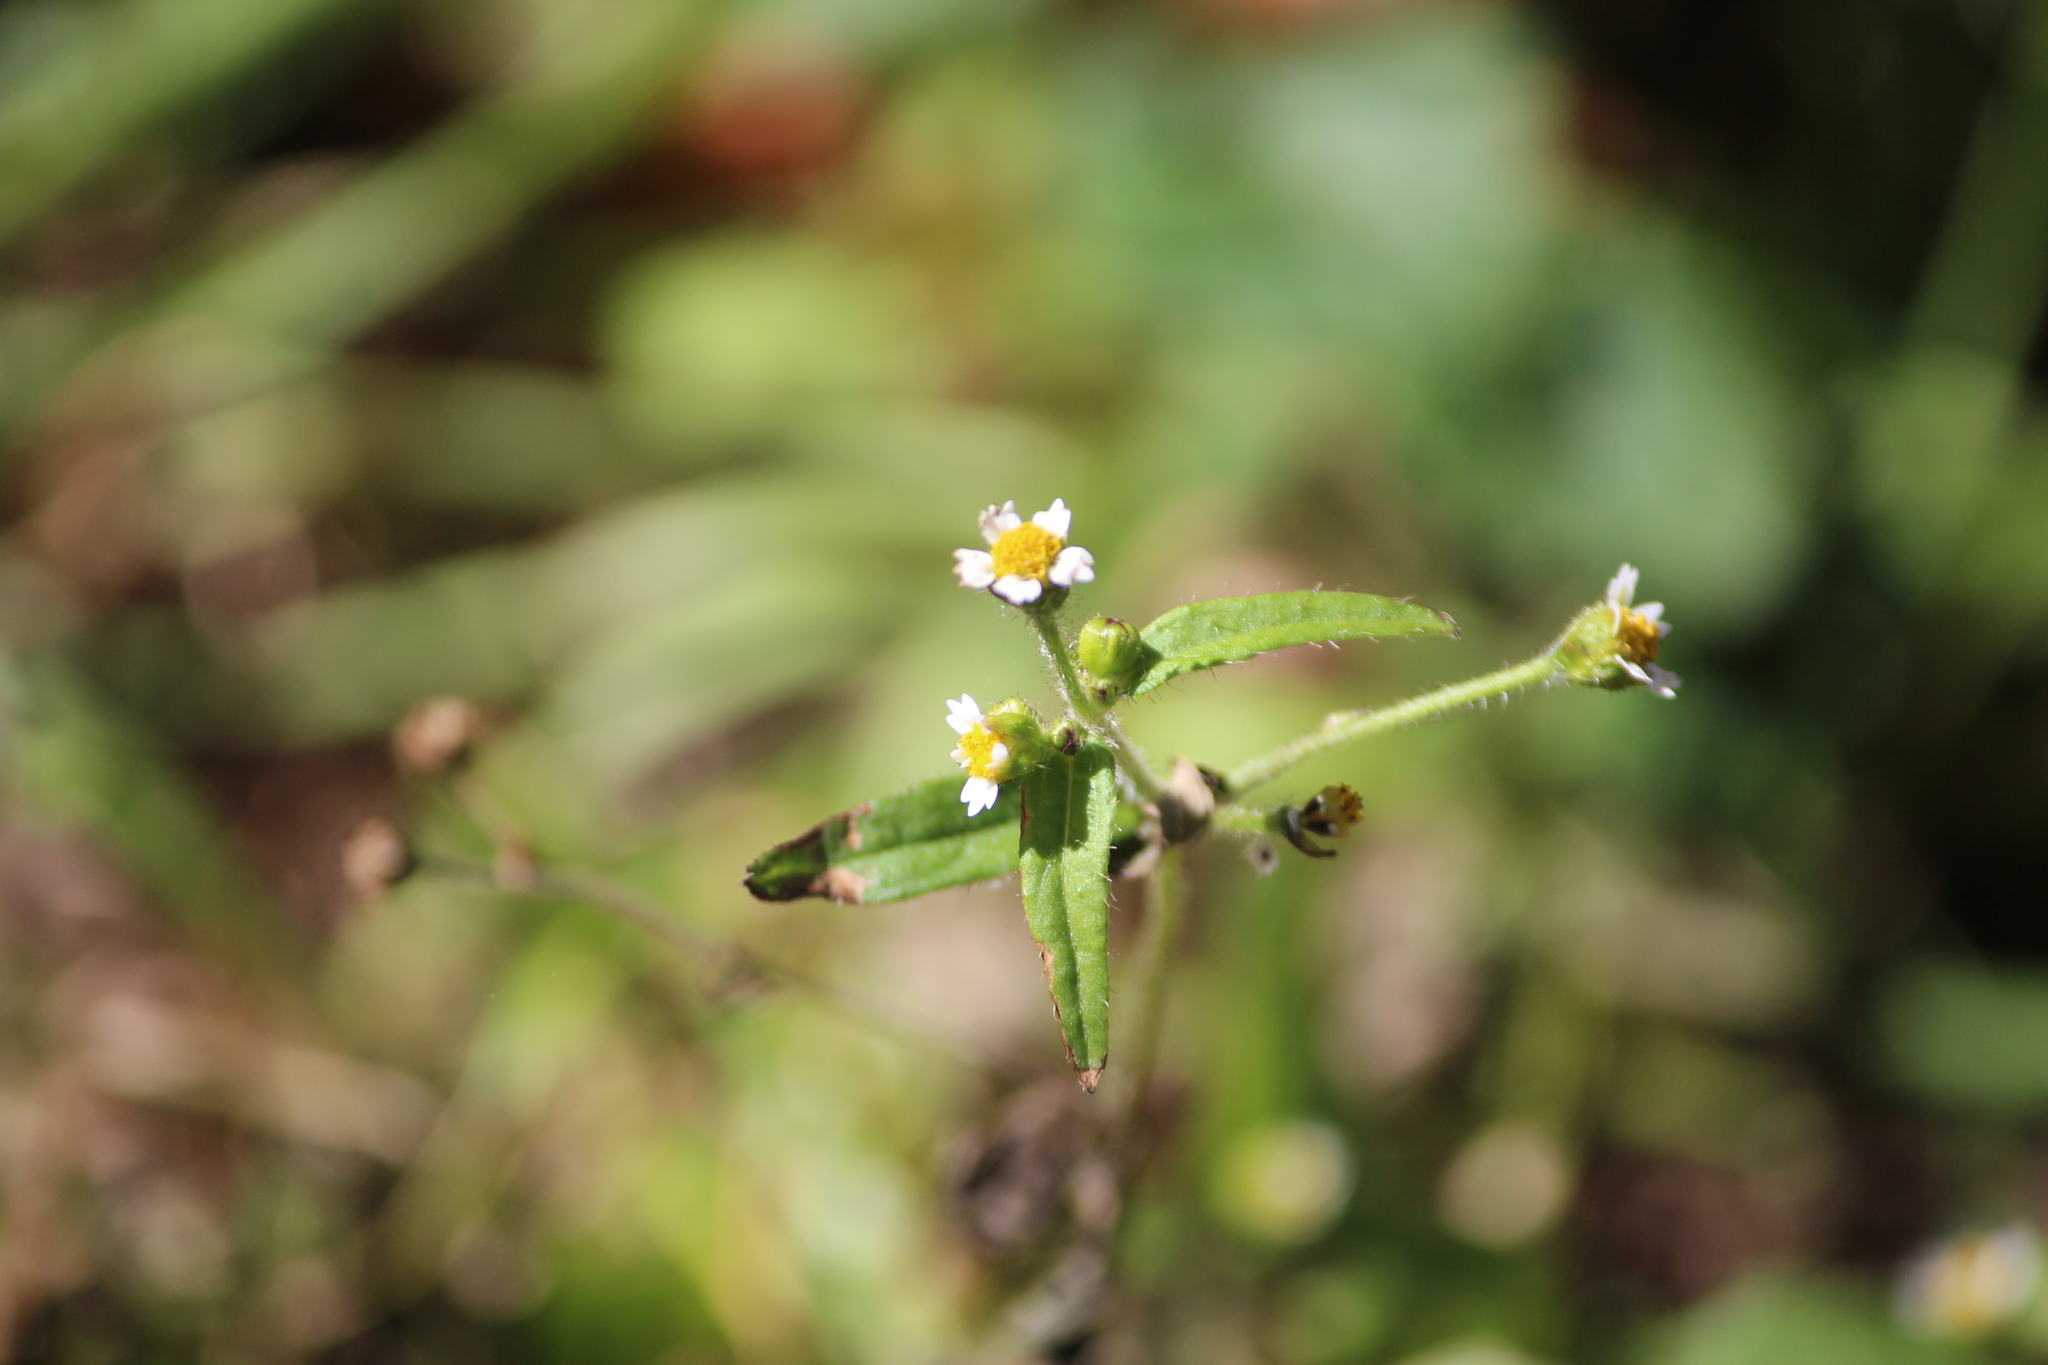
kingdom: Plantae
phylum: Tracheophyta
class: Magnoliopsida
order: Asterales
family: Asteraceae
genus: Galinsoga
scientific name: Galinsoga quadriradiata
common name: Shaggy soldier
